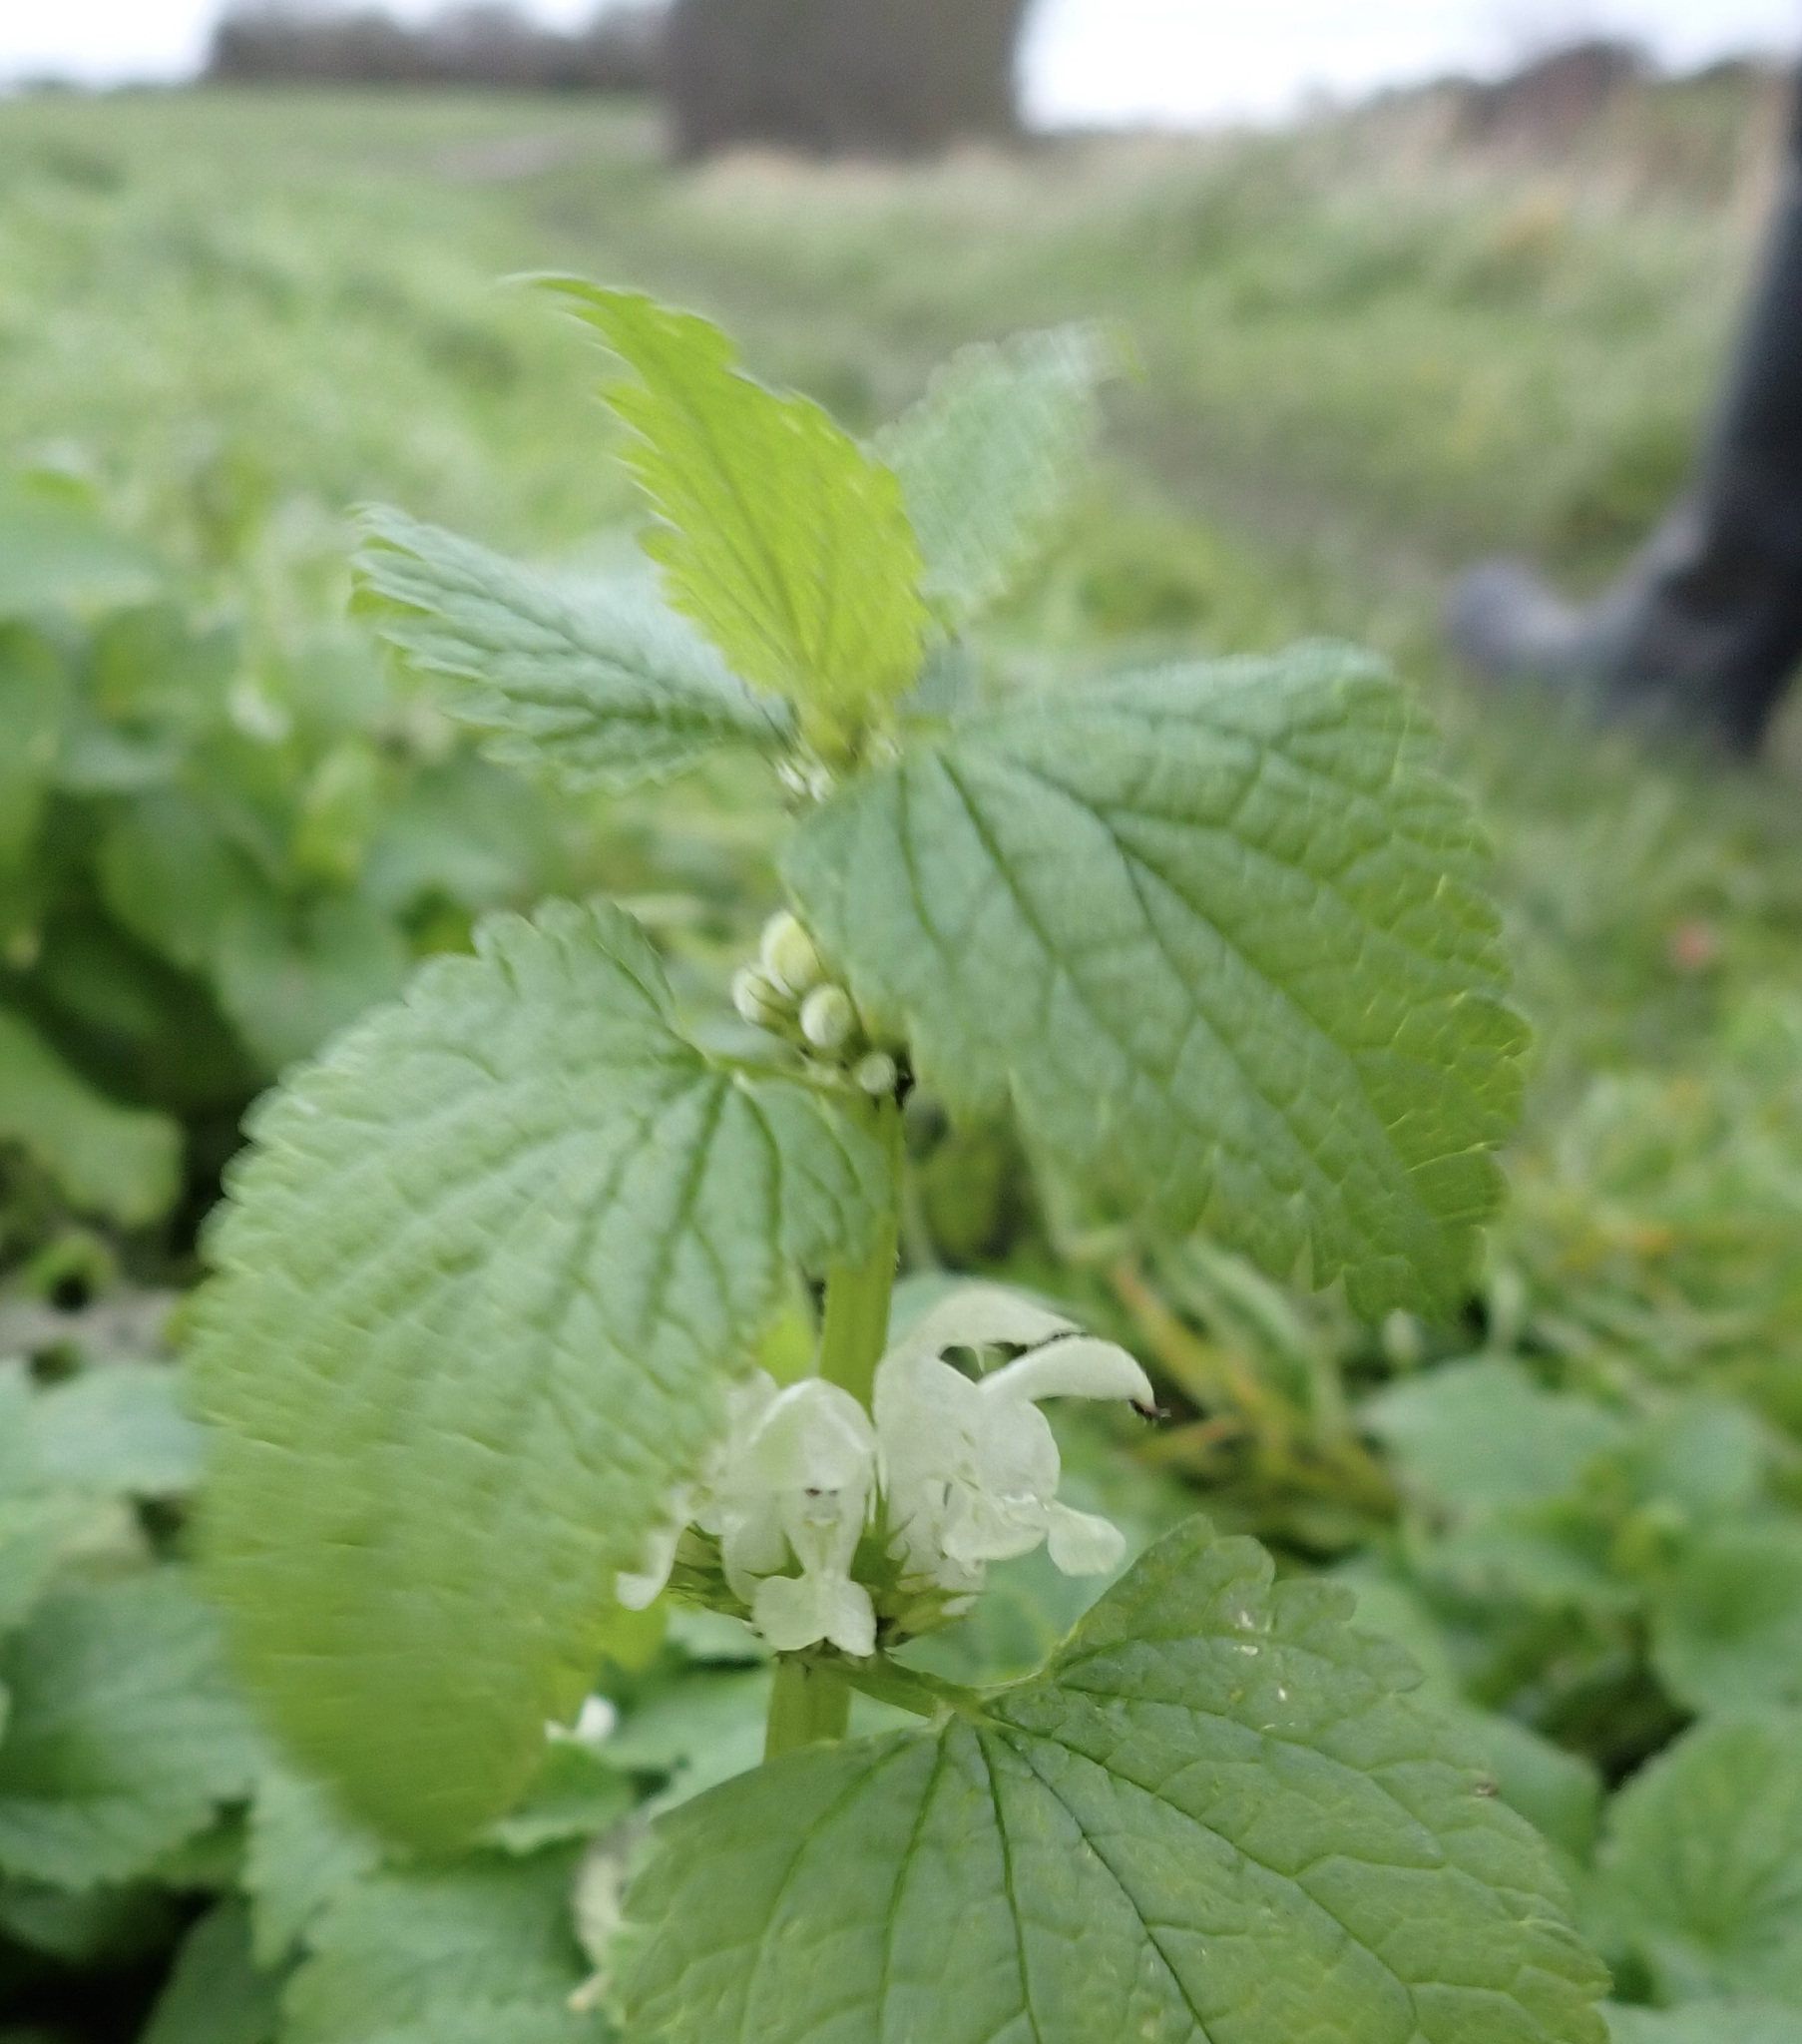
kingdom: Plantae
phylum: Tracheophyta
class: Magnoliopsida
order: Lamiales
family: Lamiaceae
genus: Lamium
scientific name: Lamium album
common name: White dead-nettle
